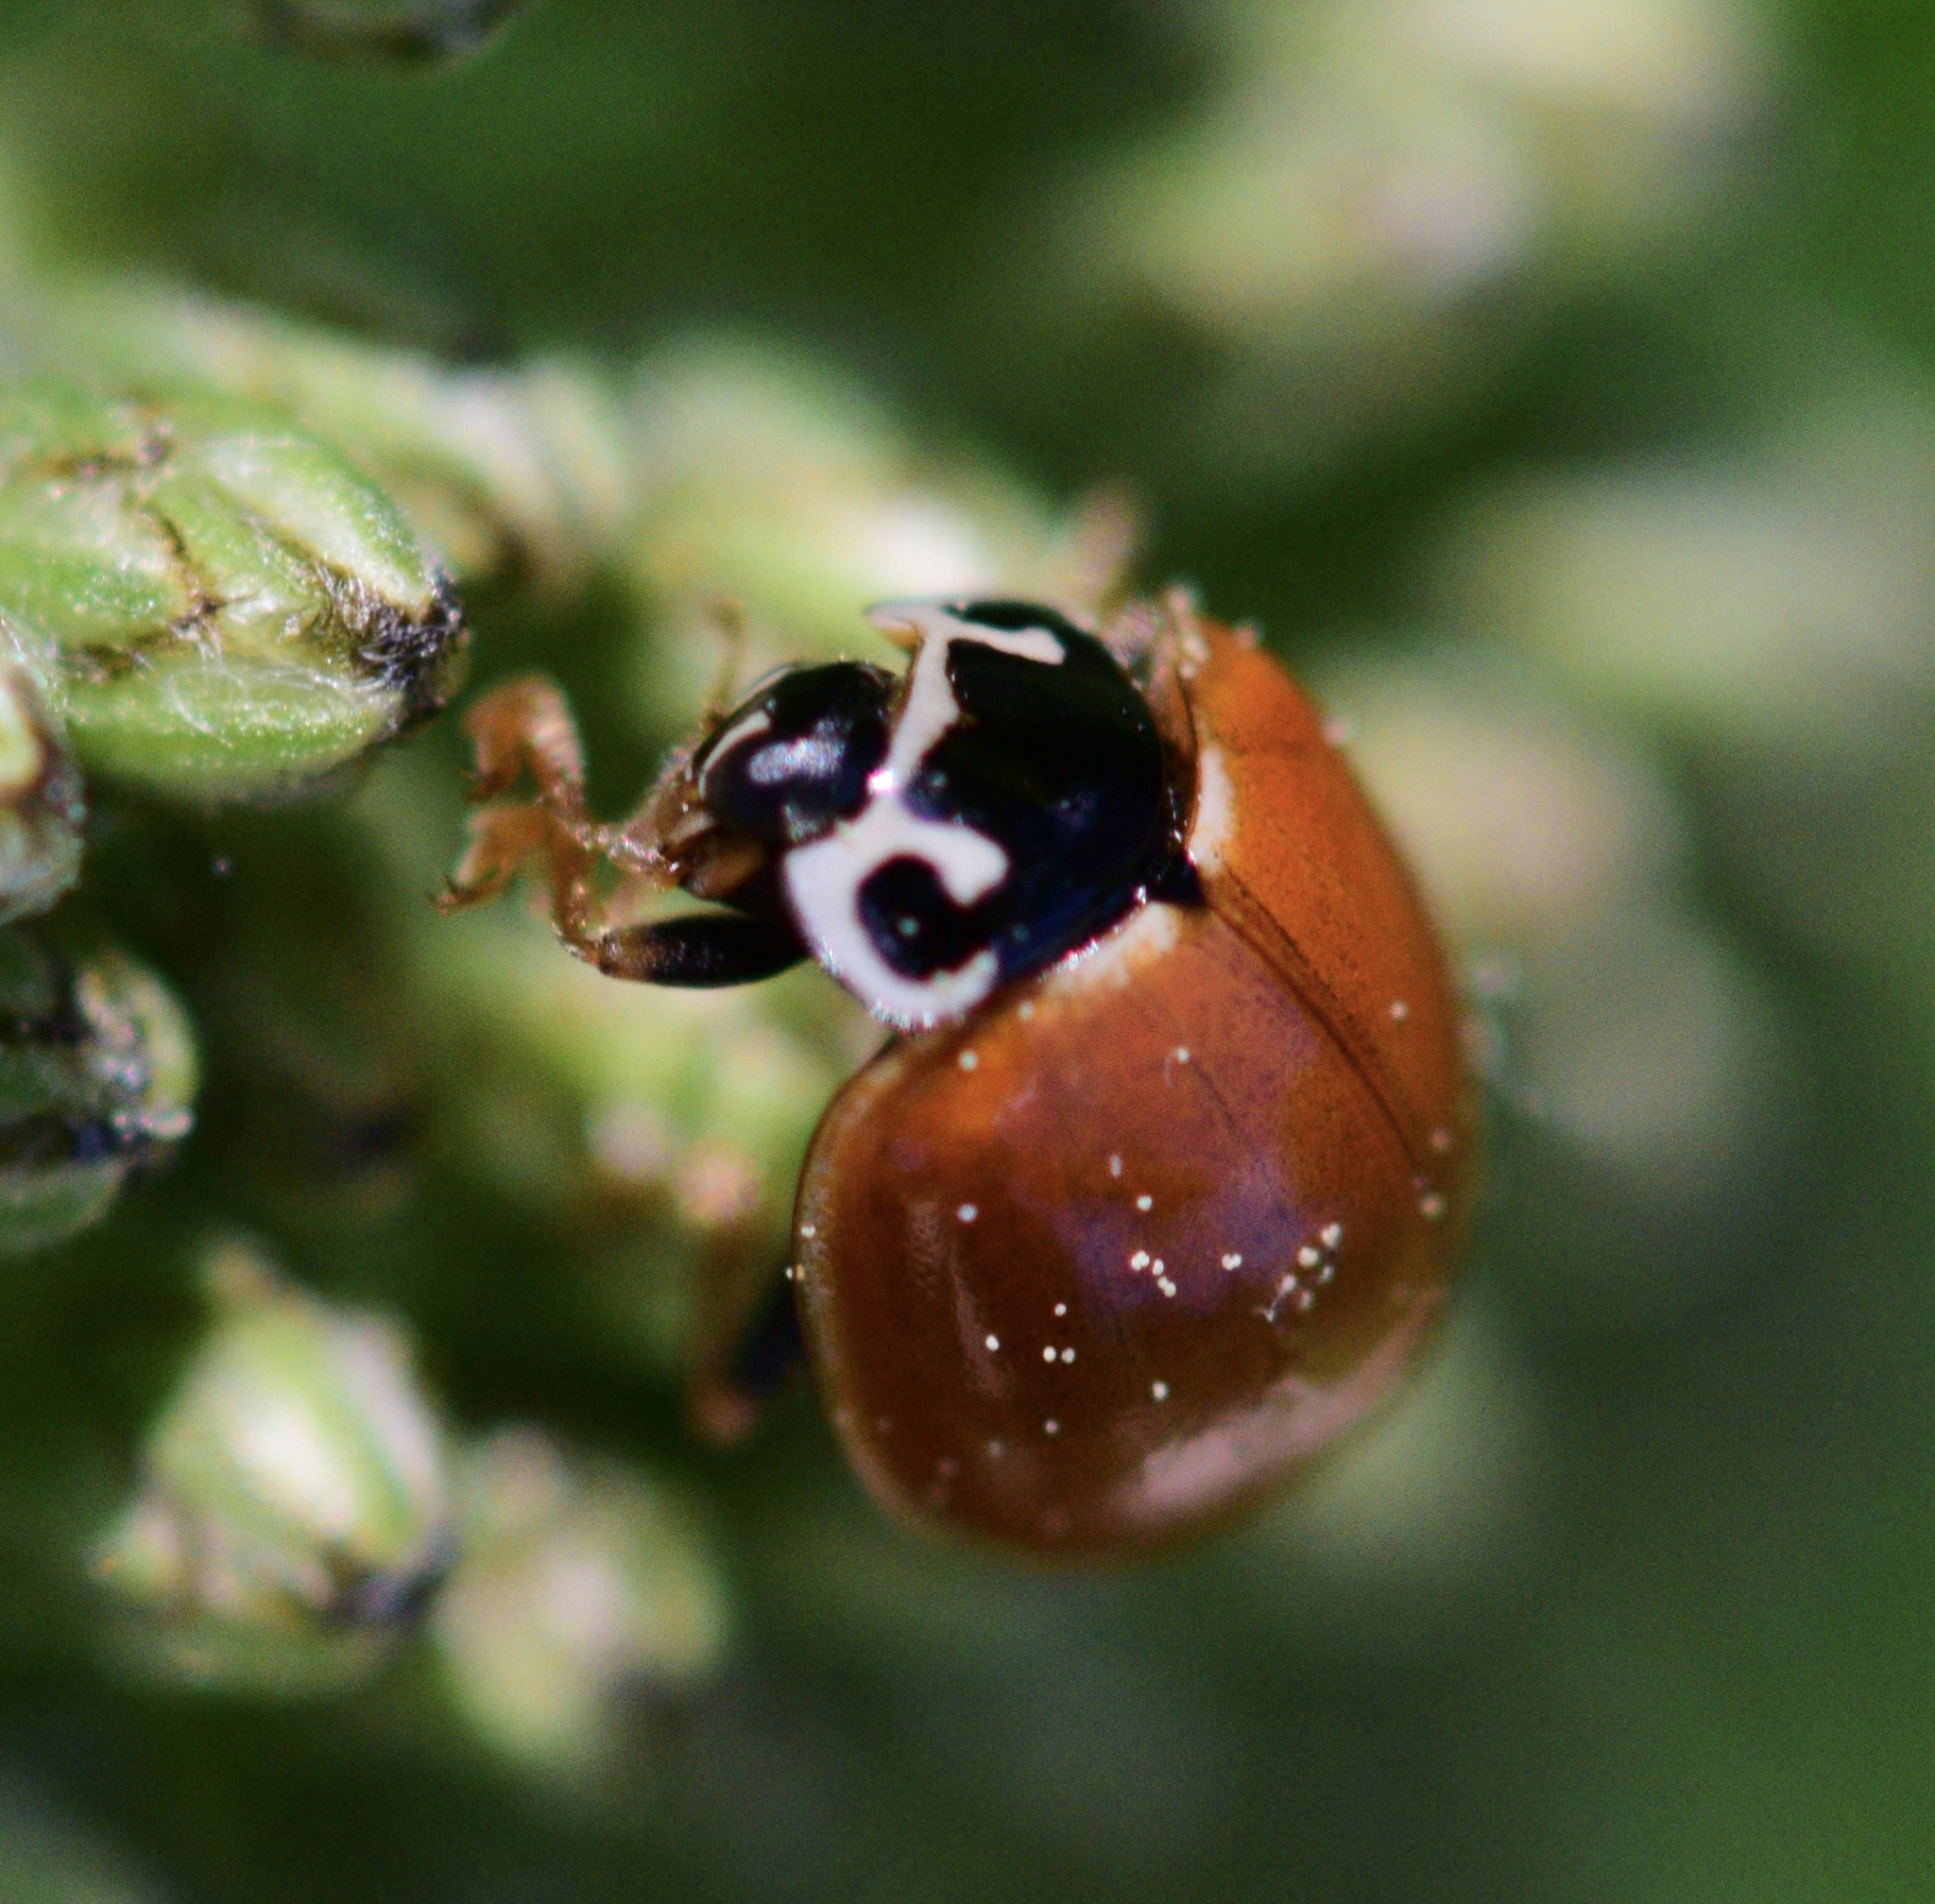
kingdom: Animalia
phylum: Arthropoda
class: Insecta
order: Coleoptera
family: Coccinellidae
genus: Cycloneda
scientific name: Cycloneda munda
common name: Polished lady beetle
